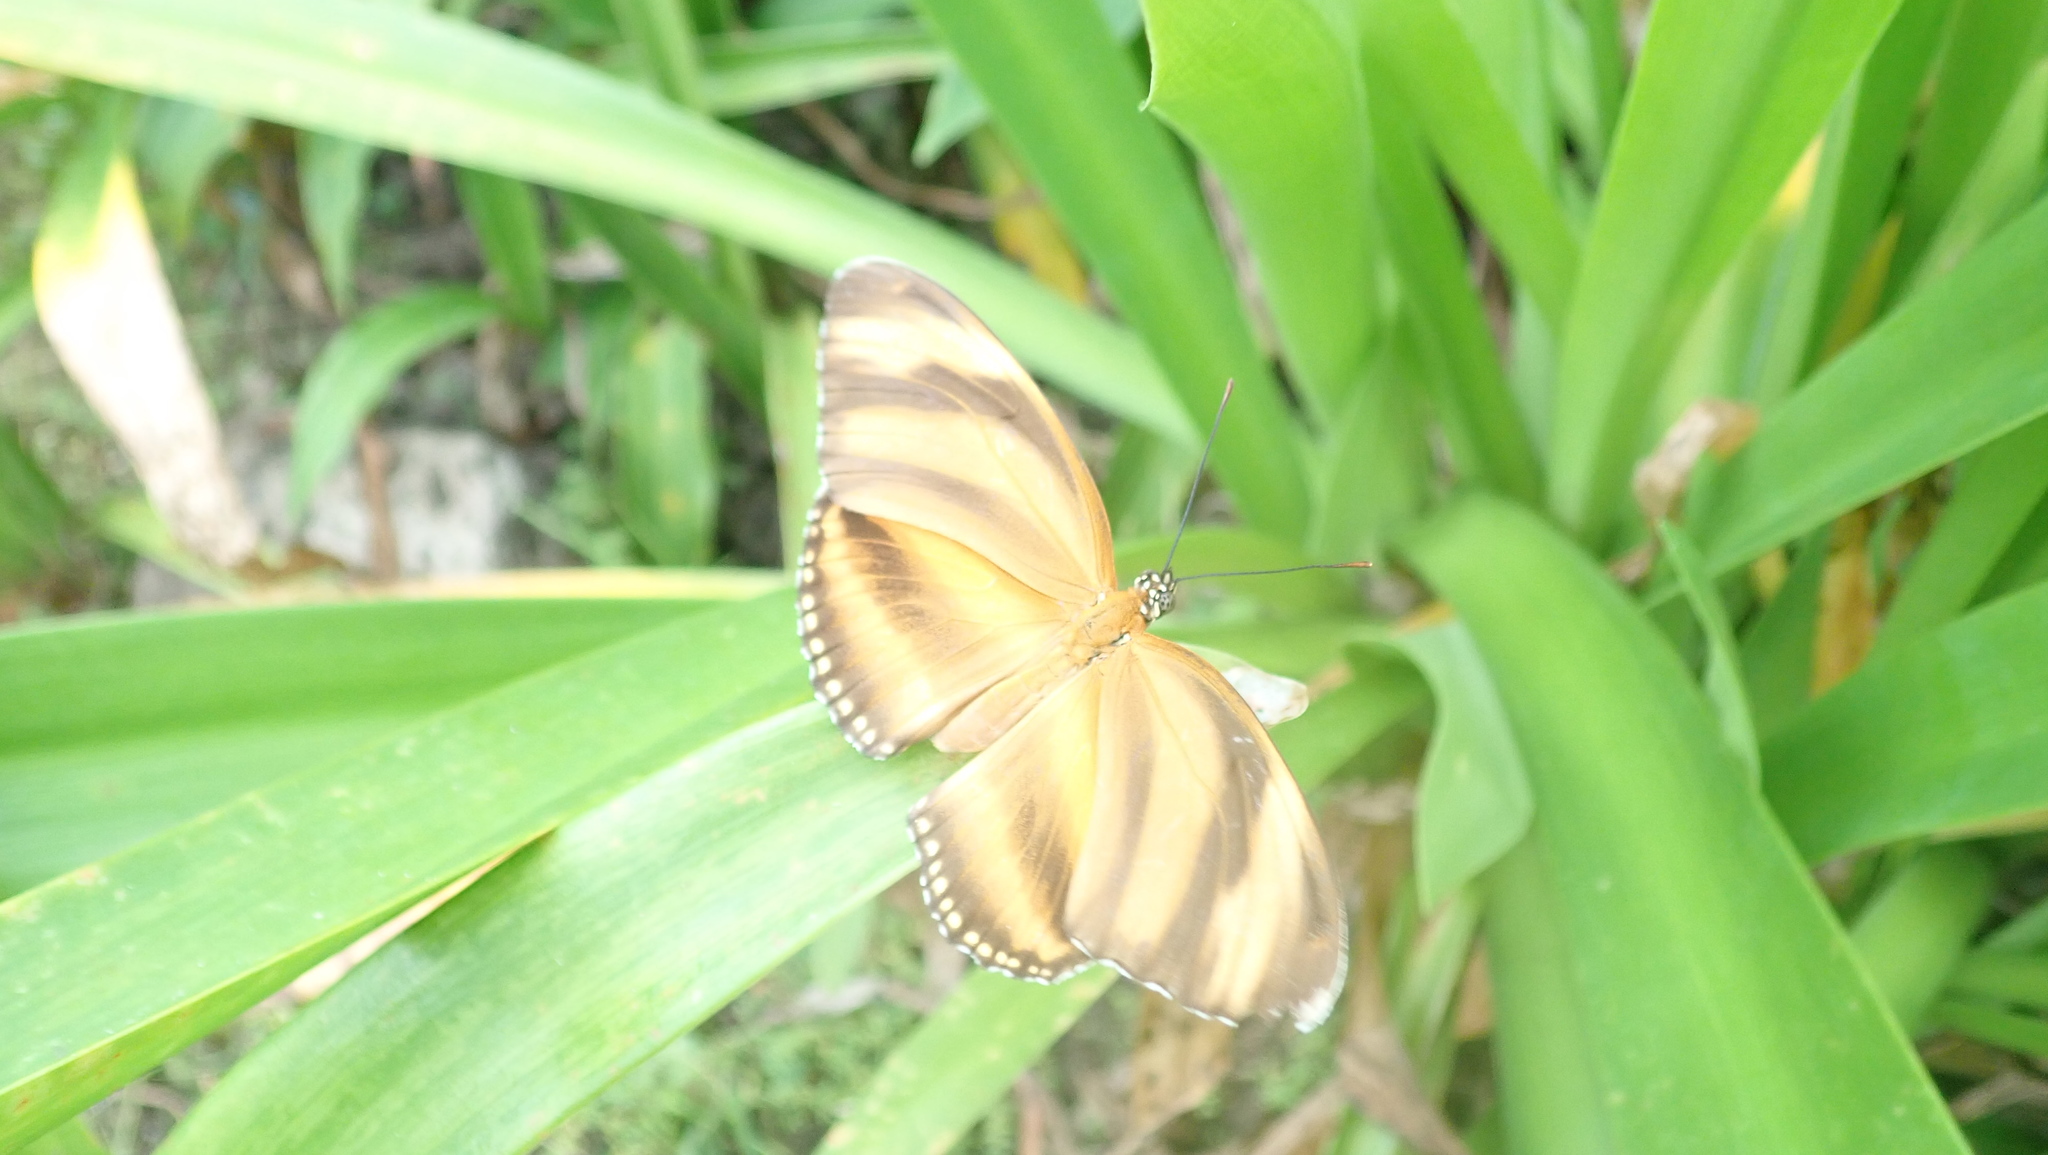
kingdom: Animalia
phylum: Arthropoda
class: Insecta
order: Lepidoptera
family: Nymphalidae
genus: Dryadula
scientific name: Dryadula phaetusa
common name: Banded orange heliconian
